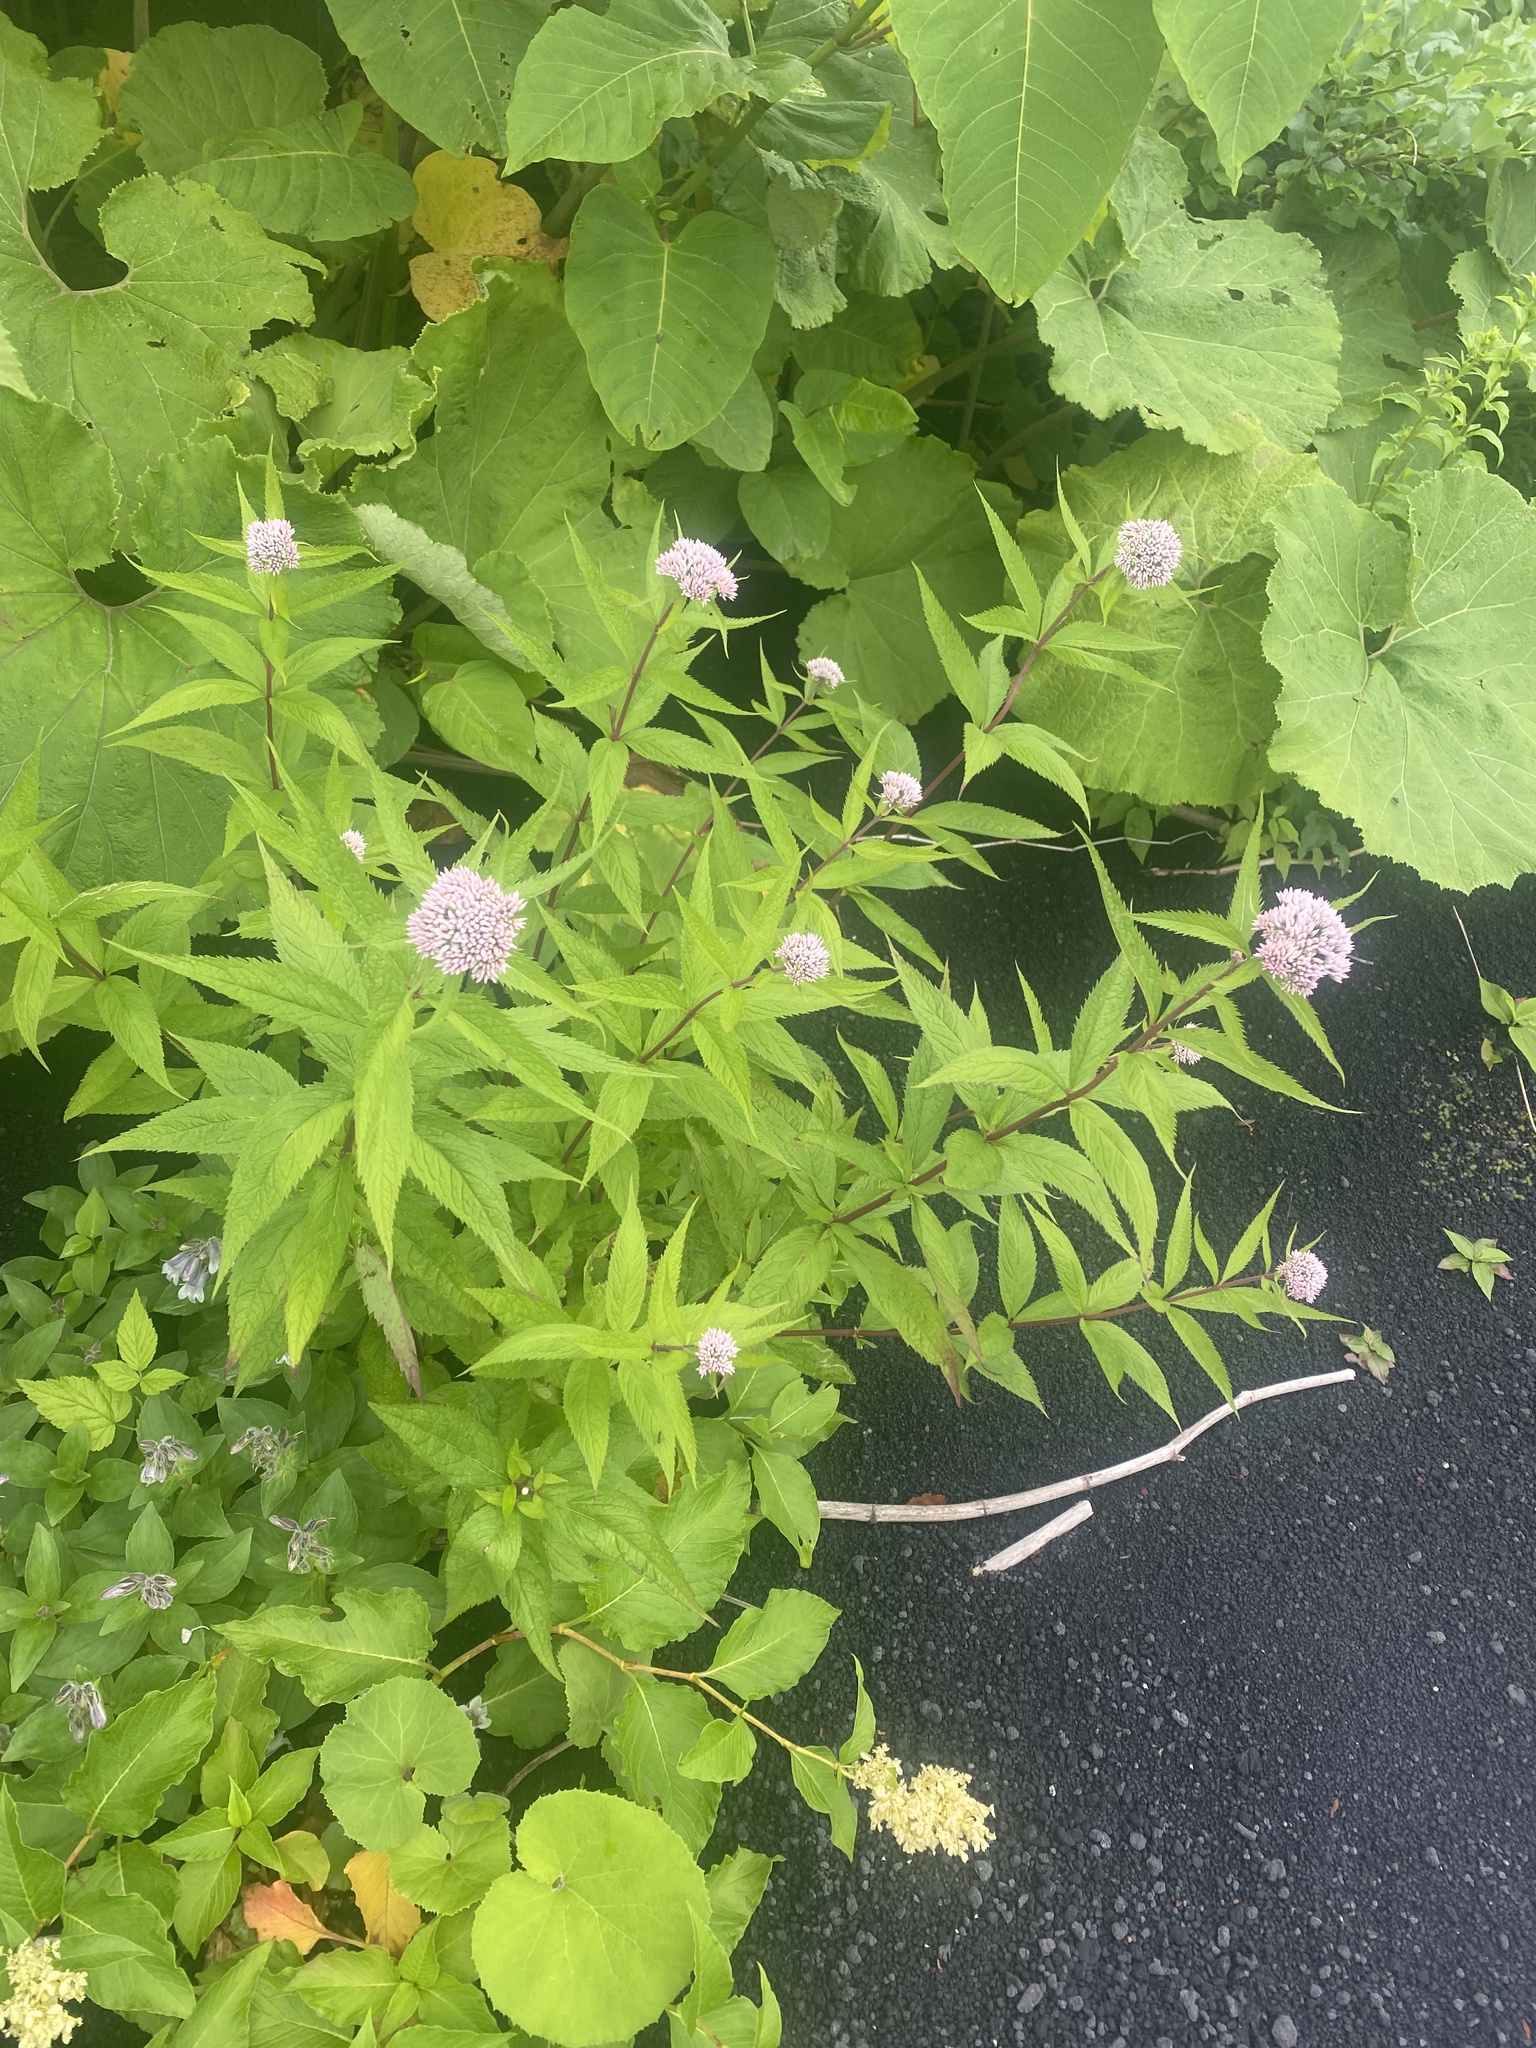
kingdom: Plantae
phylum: Tracheophyta
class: Magnoliopsida
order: Asterales
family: Asteraceae
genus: Eupatorium
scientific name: Eupatorium glehnii
